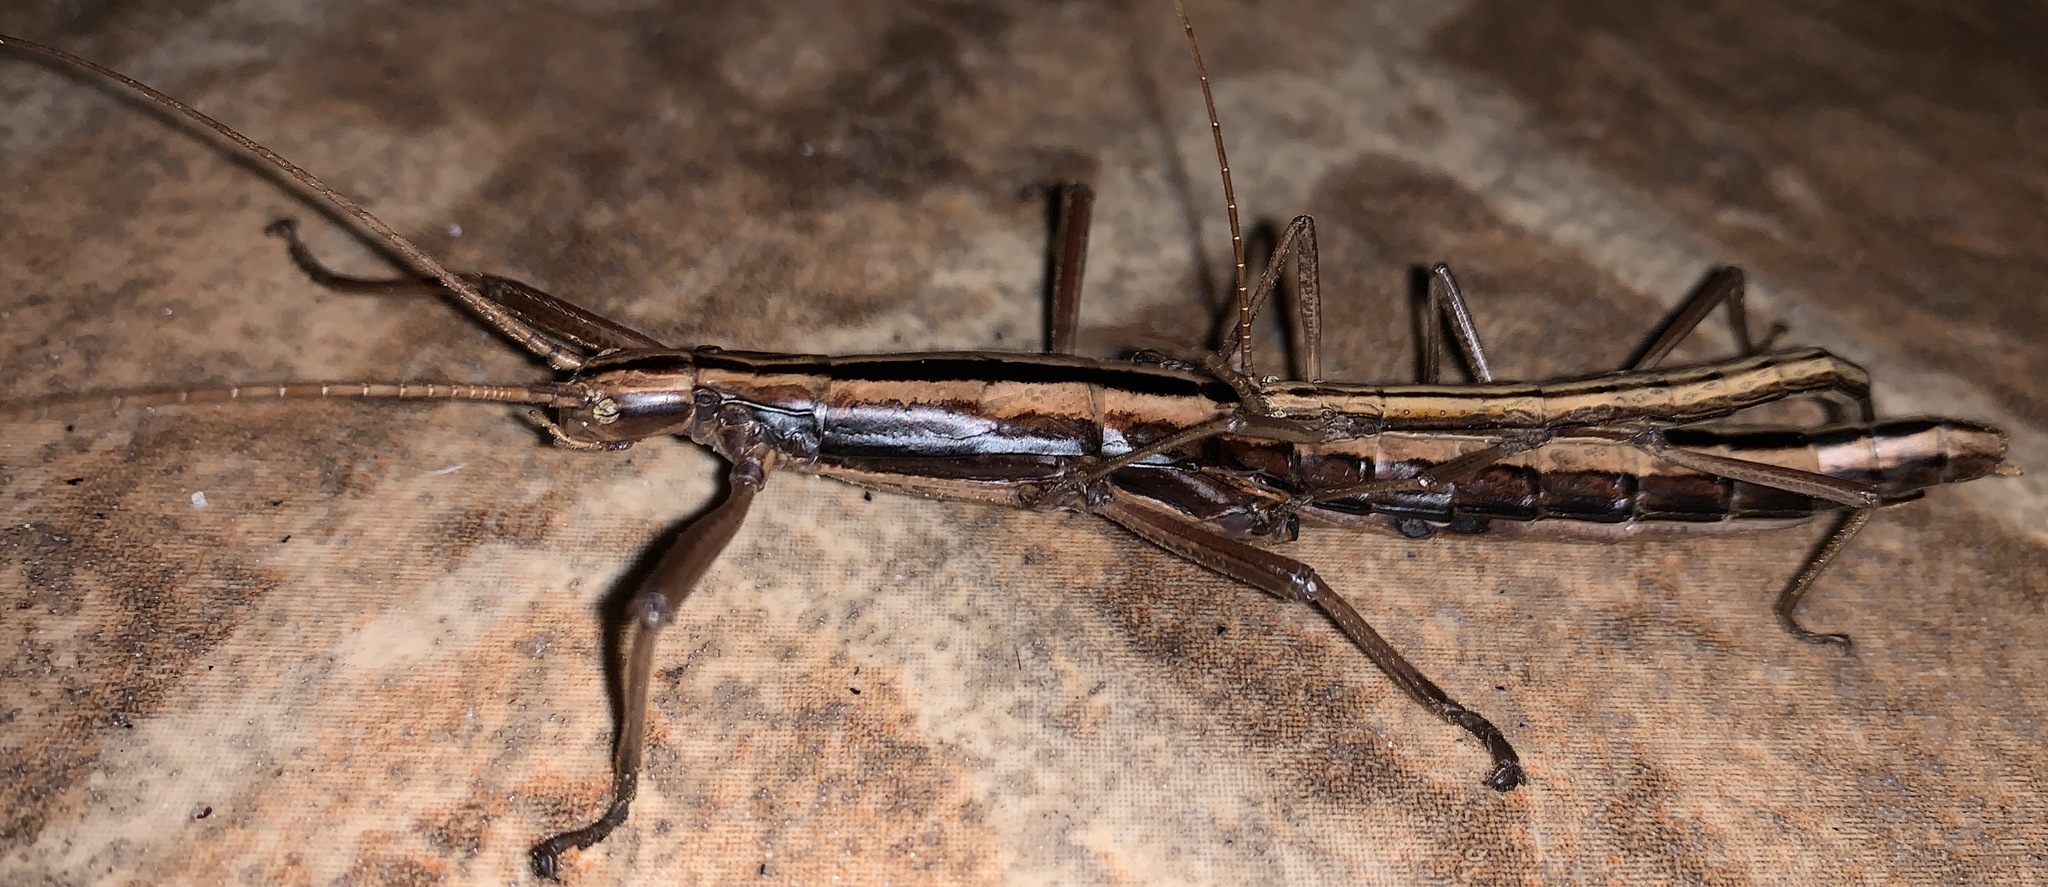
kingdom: Animalia
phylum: Arthropoda
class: Insecta
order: Phasmida
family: Pseudophasmatidae
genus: Anisomorpha
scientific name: Anisomorpha buprestoides
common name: Florida stick insect
